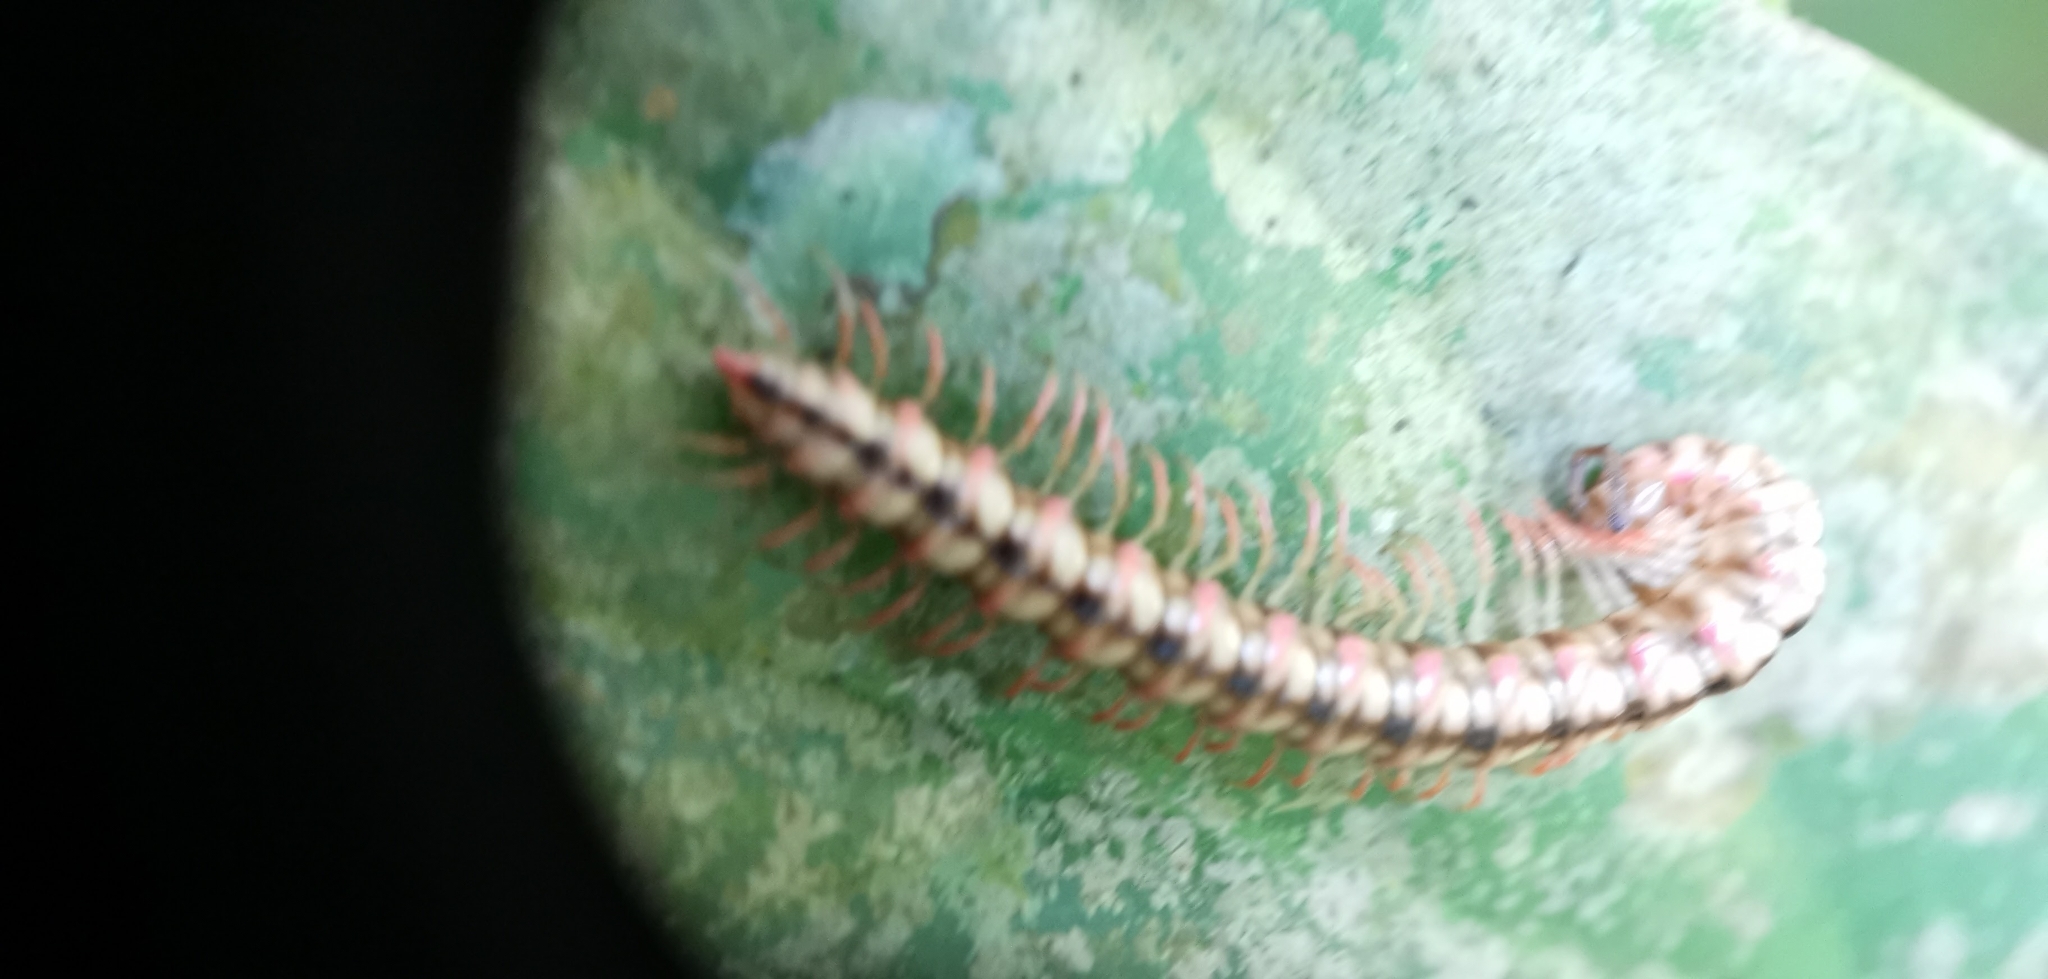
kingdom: Animalia
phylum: Arthropoda
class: Diplopoda
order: Polydesmida
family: Paradoxosomatidae
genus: Opisthodolichopus
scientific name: Opisthodolichopus scandens
